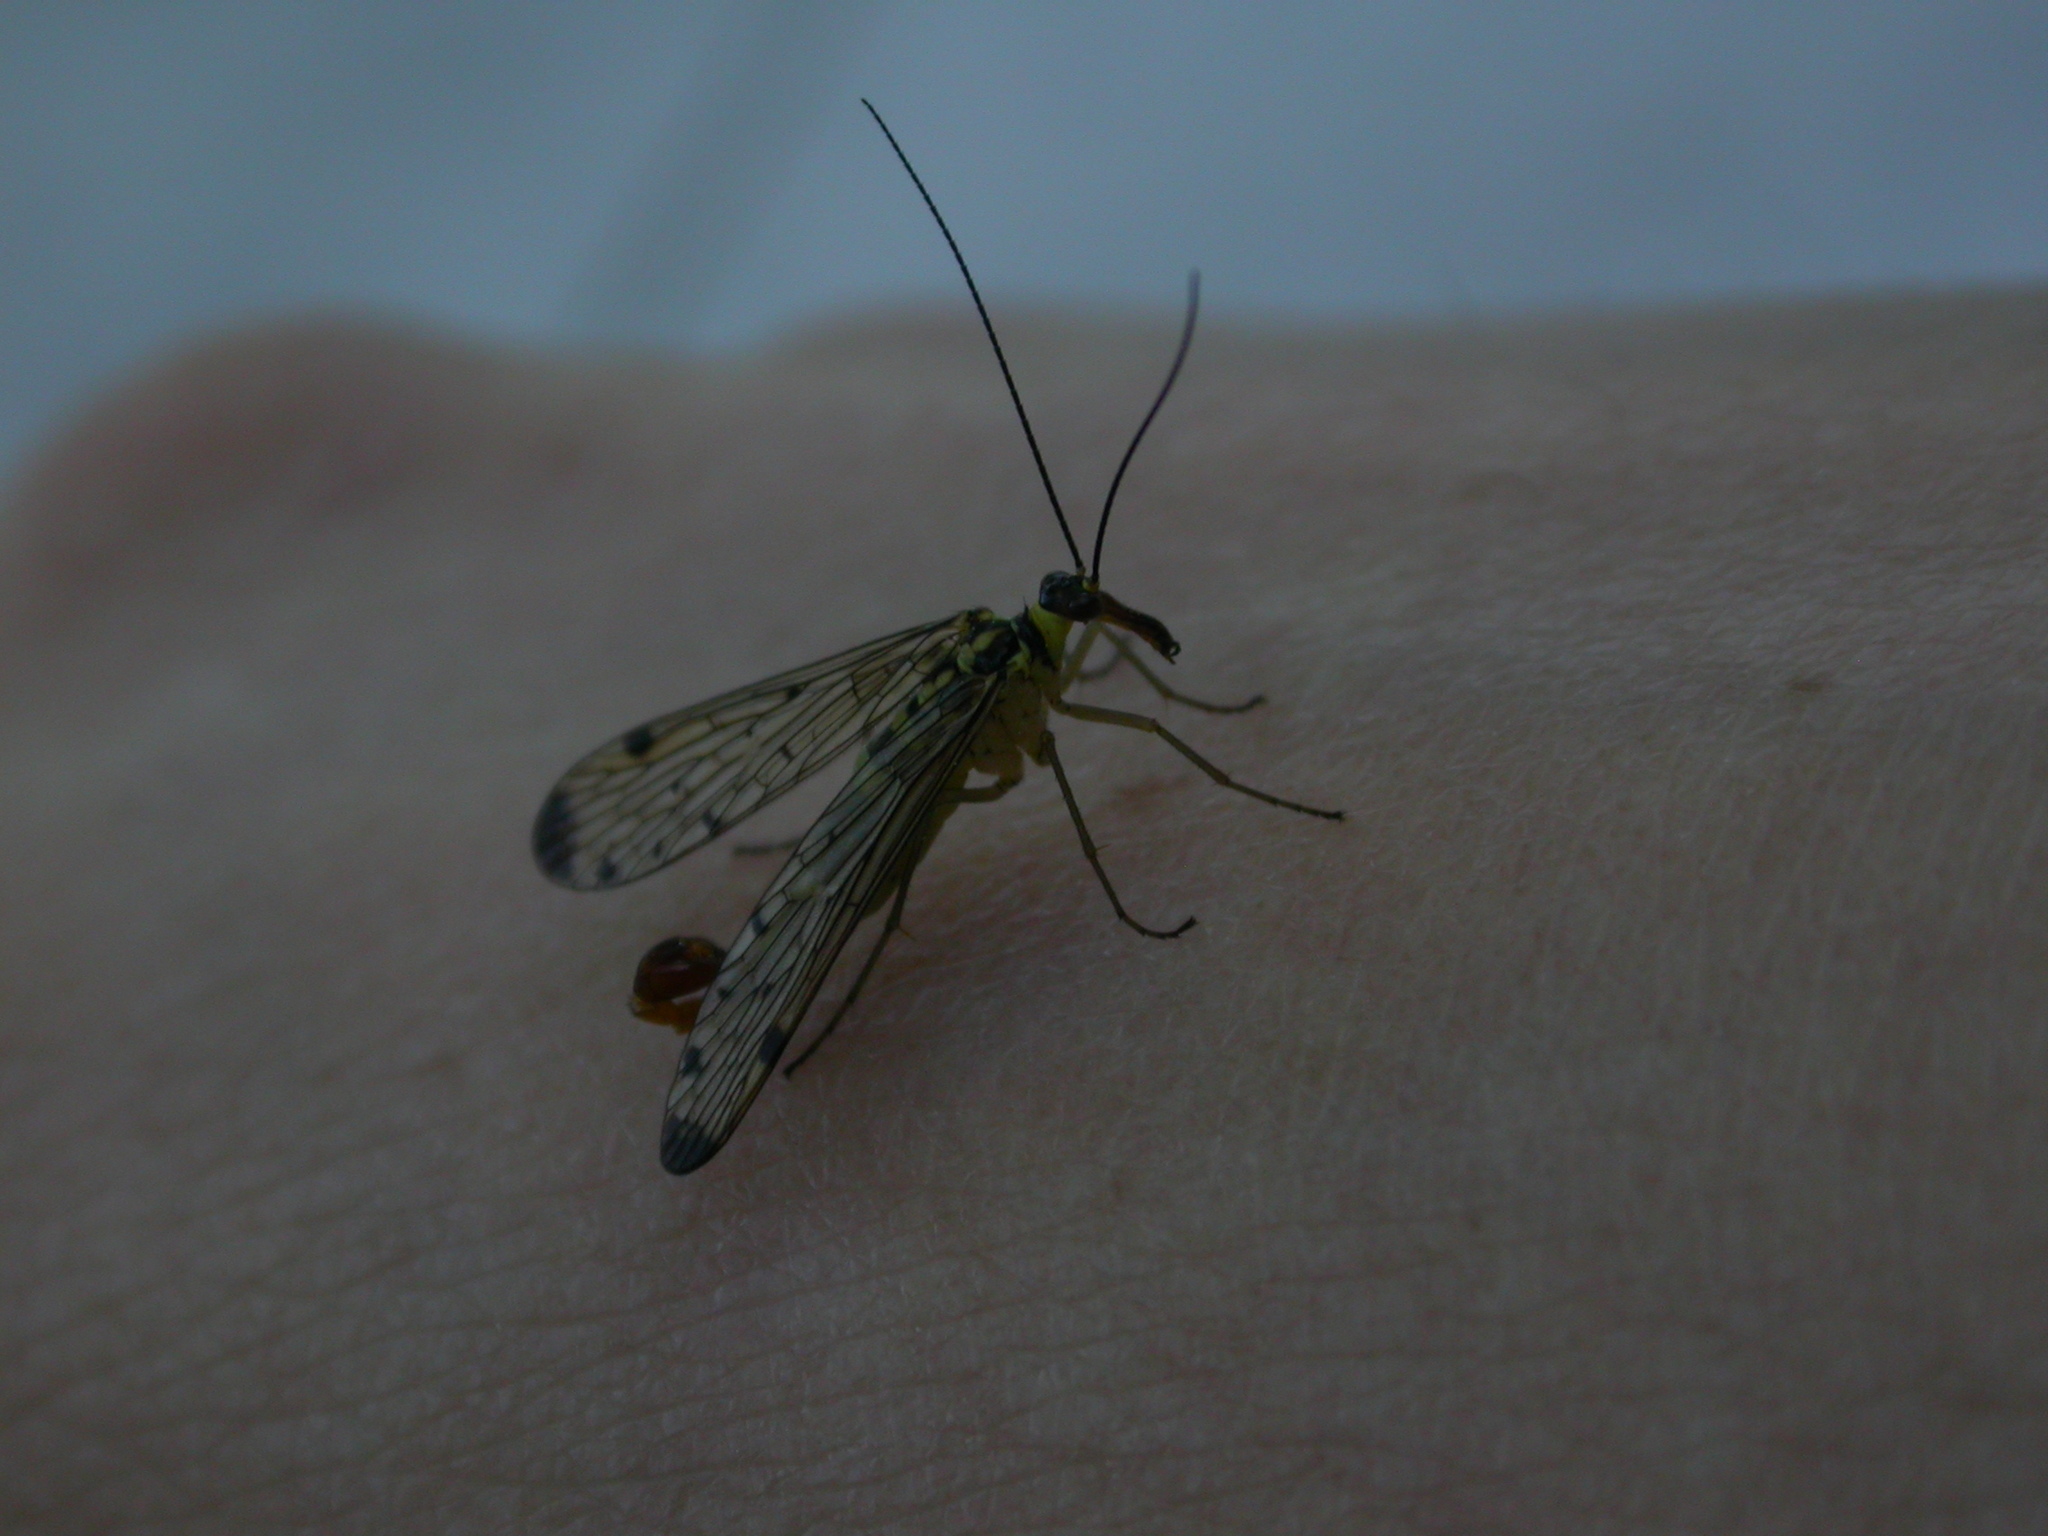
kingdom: Animalia
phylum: Arthropoda
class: Insecta
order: Mecoptera
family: Panorpidae
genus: Panorpa
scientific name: Panorpa germanica
